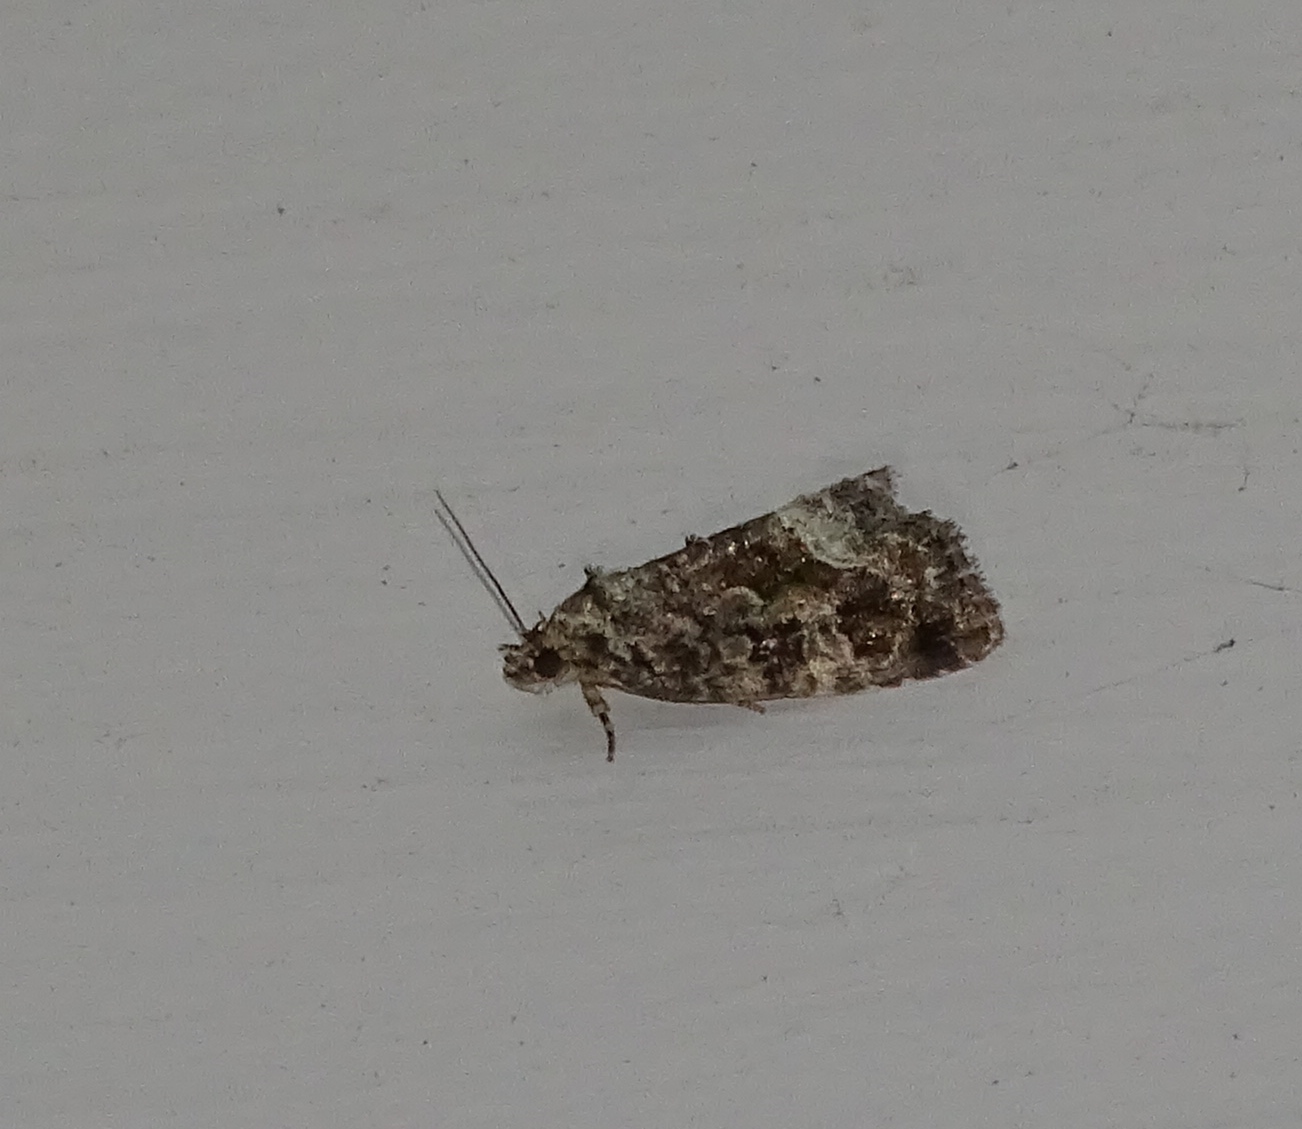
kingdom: Animalia
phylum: Arthropoda
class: Insecta
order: Lepidoptera
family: Noctuidae
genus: Protodeltote
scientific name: Protodeltote muscosula
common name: Large mossy glyph
